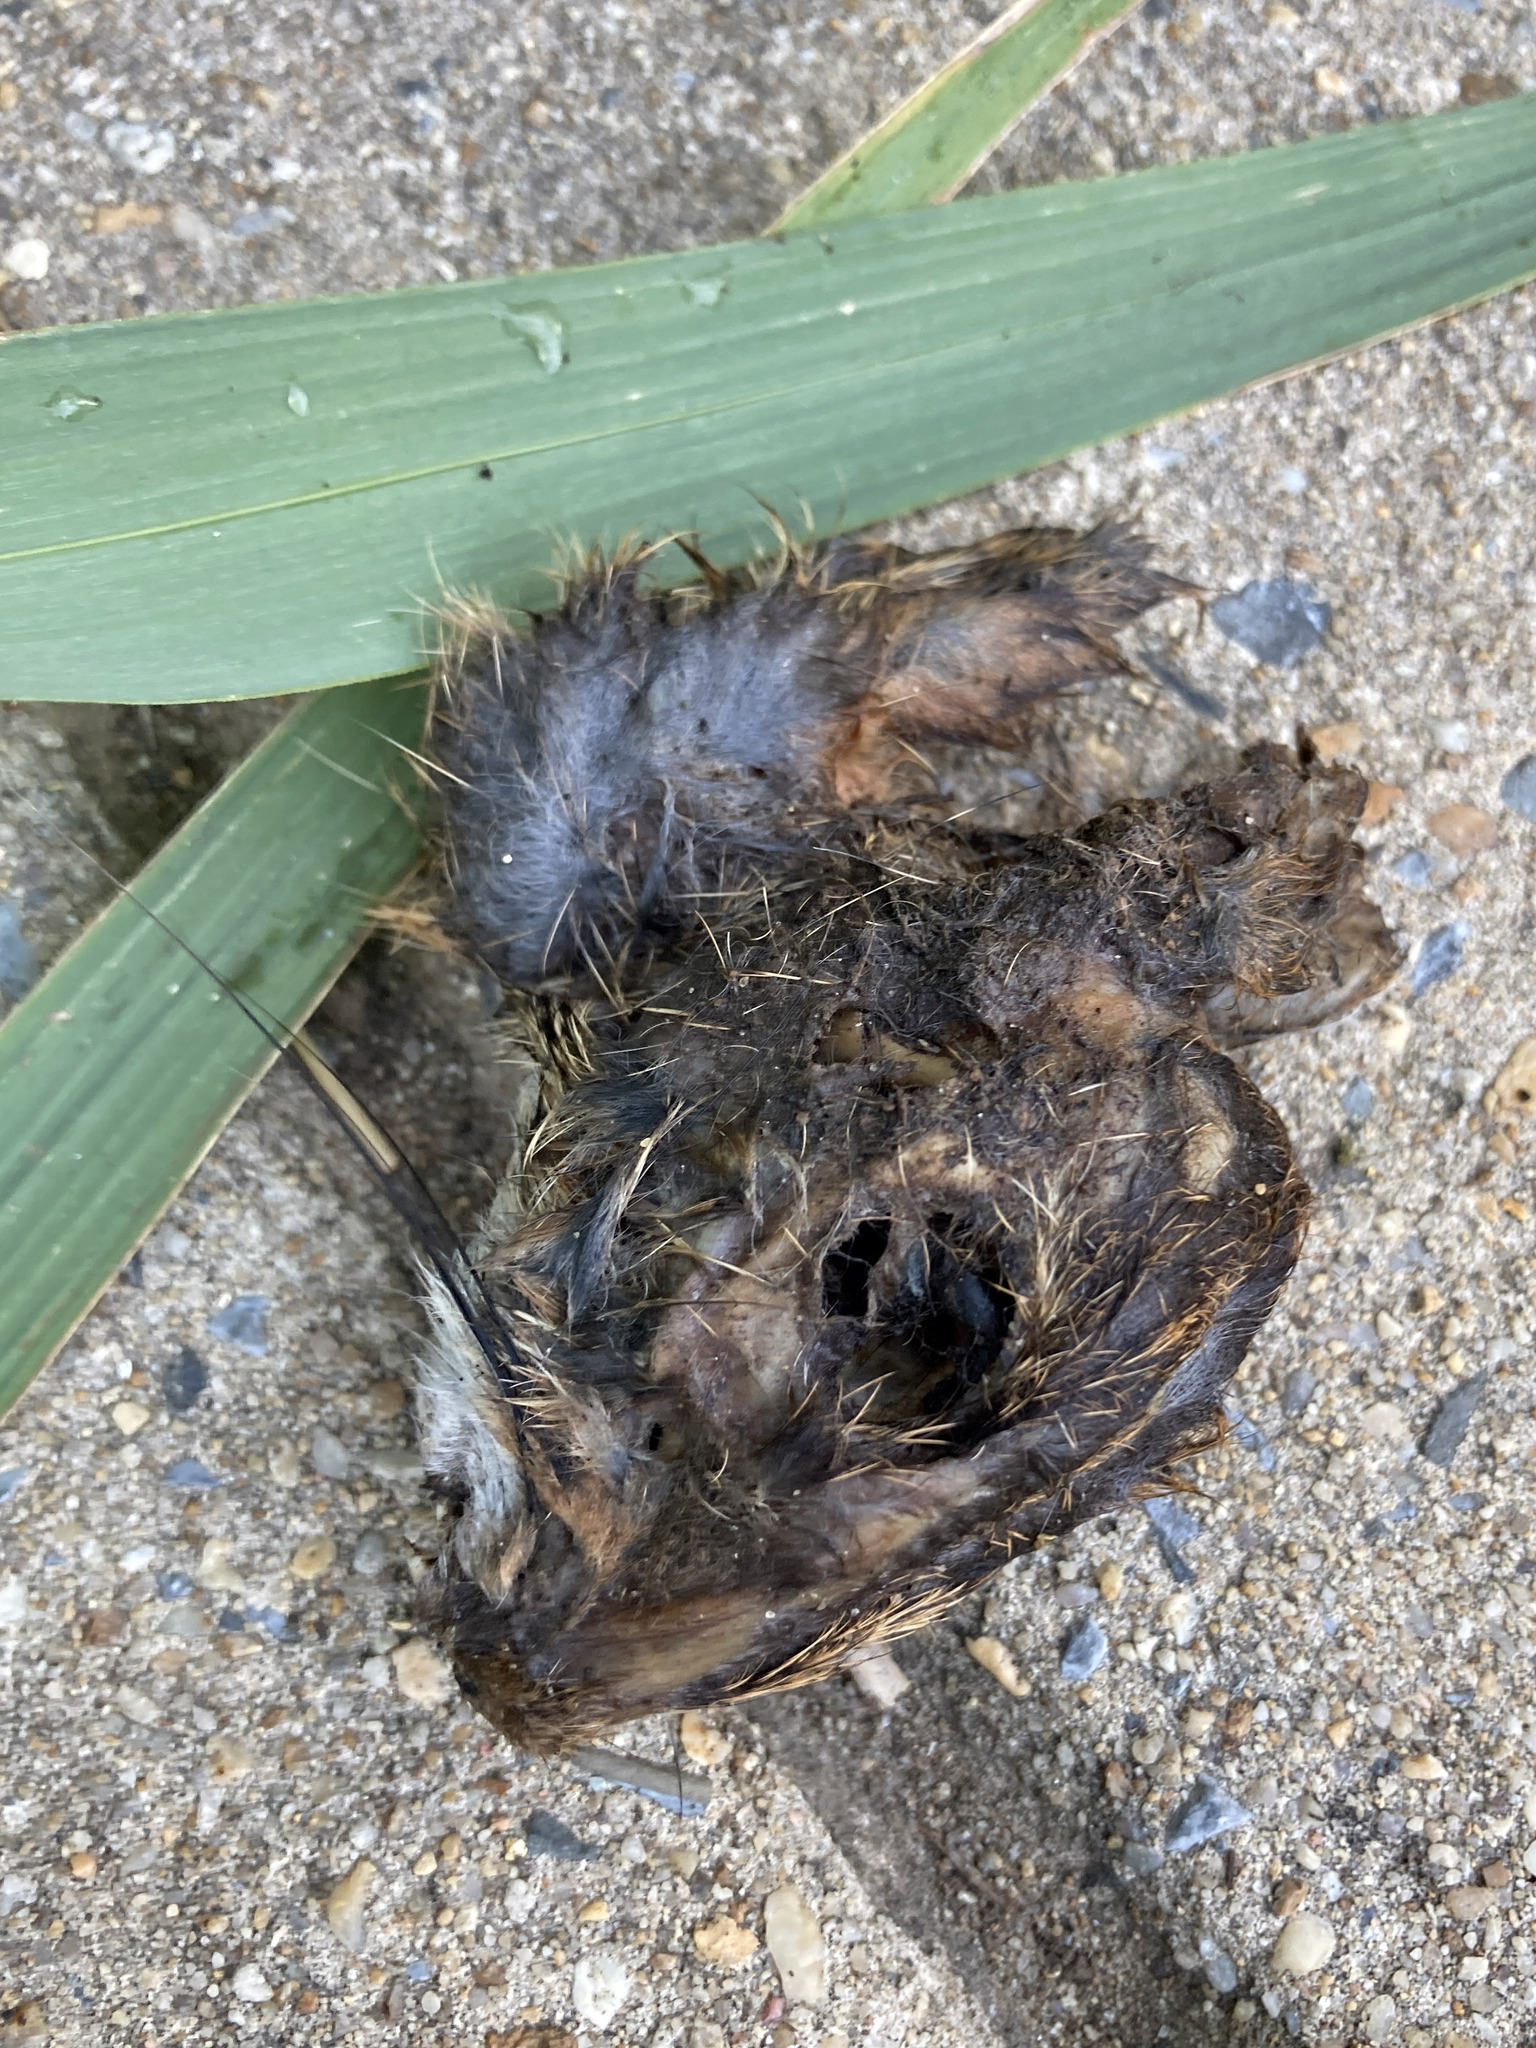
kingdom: Animalia
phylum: Chordata
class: Mammalia
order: Lagomorpha
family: Leporidae
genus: Sylvilagus
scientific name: Sylvilagus floridanus
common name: Eastern cottontail
